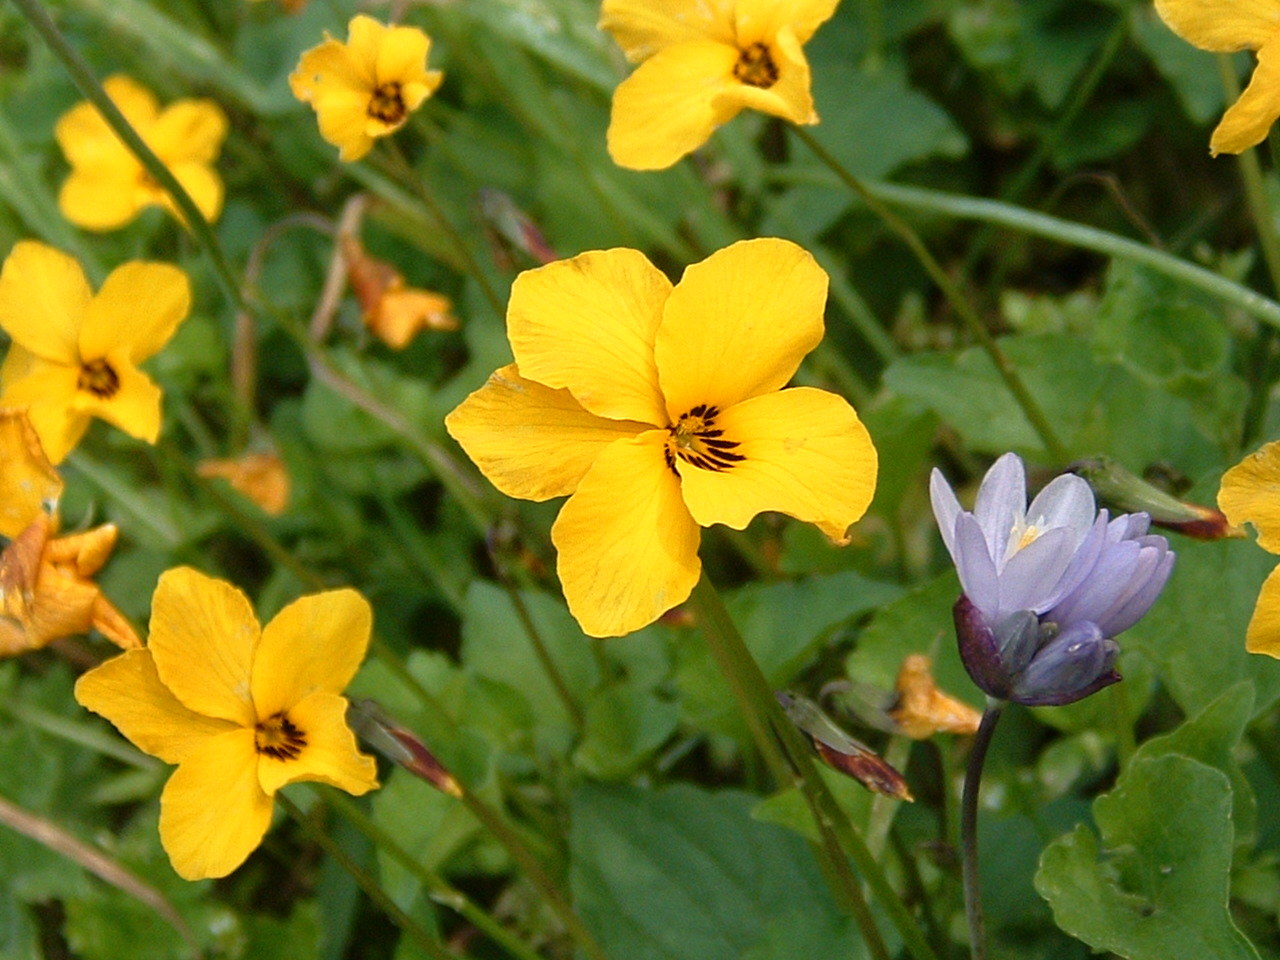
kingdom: Plantae
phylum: Tracheophyta
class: Liliopsida
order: Asparagales
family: Asparagaceae
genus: Dipterostemon
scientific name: Dipterostemon capitatus
